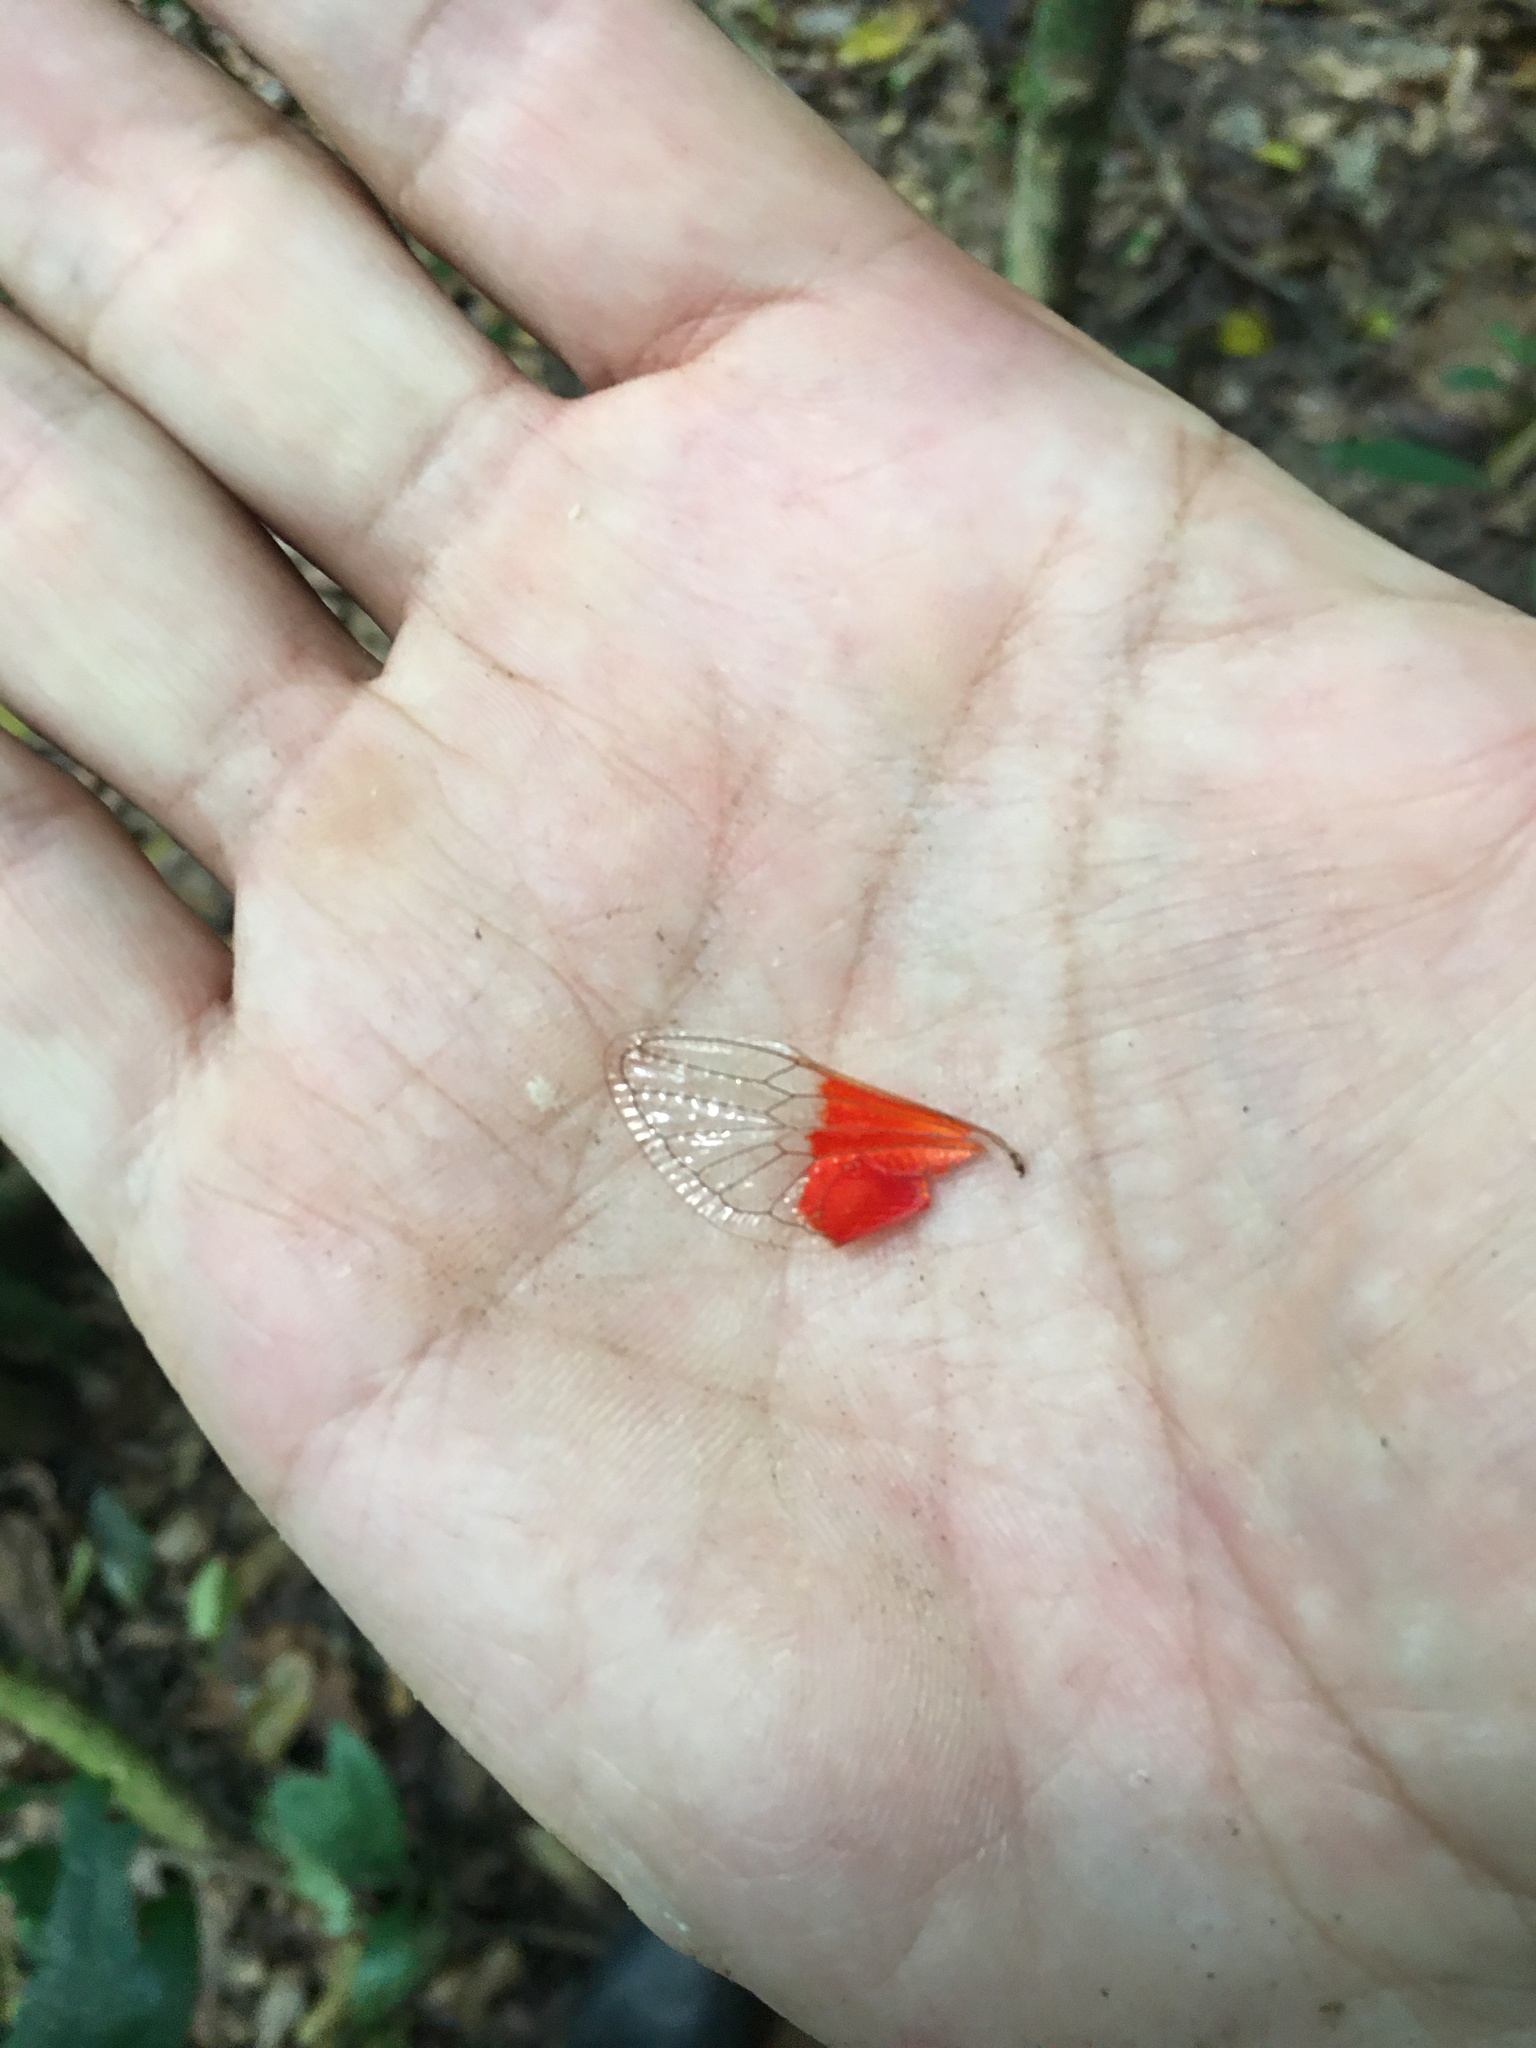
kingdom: Animalia
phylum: Arthropoda
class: Insecta
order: Hemiptera
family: Cicadidae
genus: Hemisciera
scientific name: Hemisciera maculipennis
